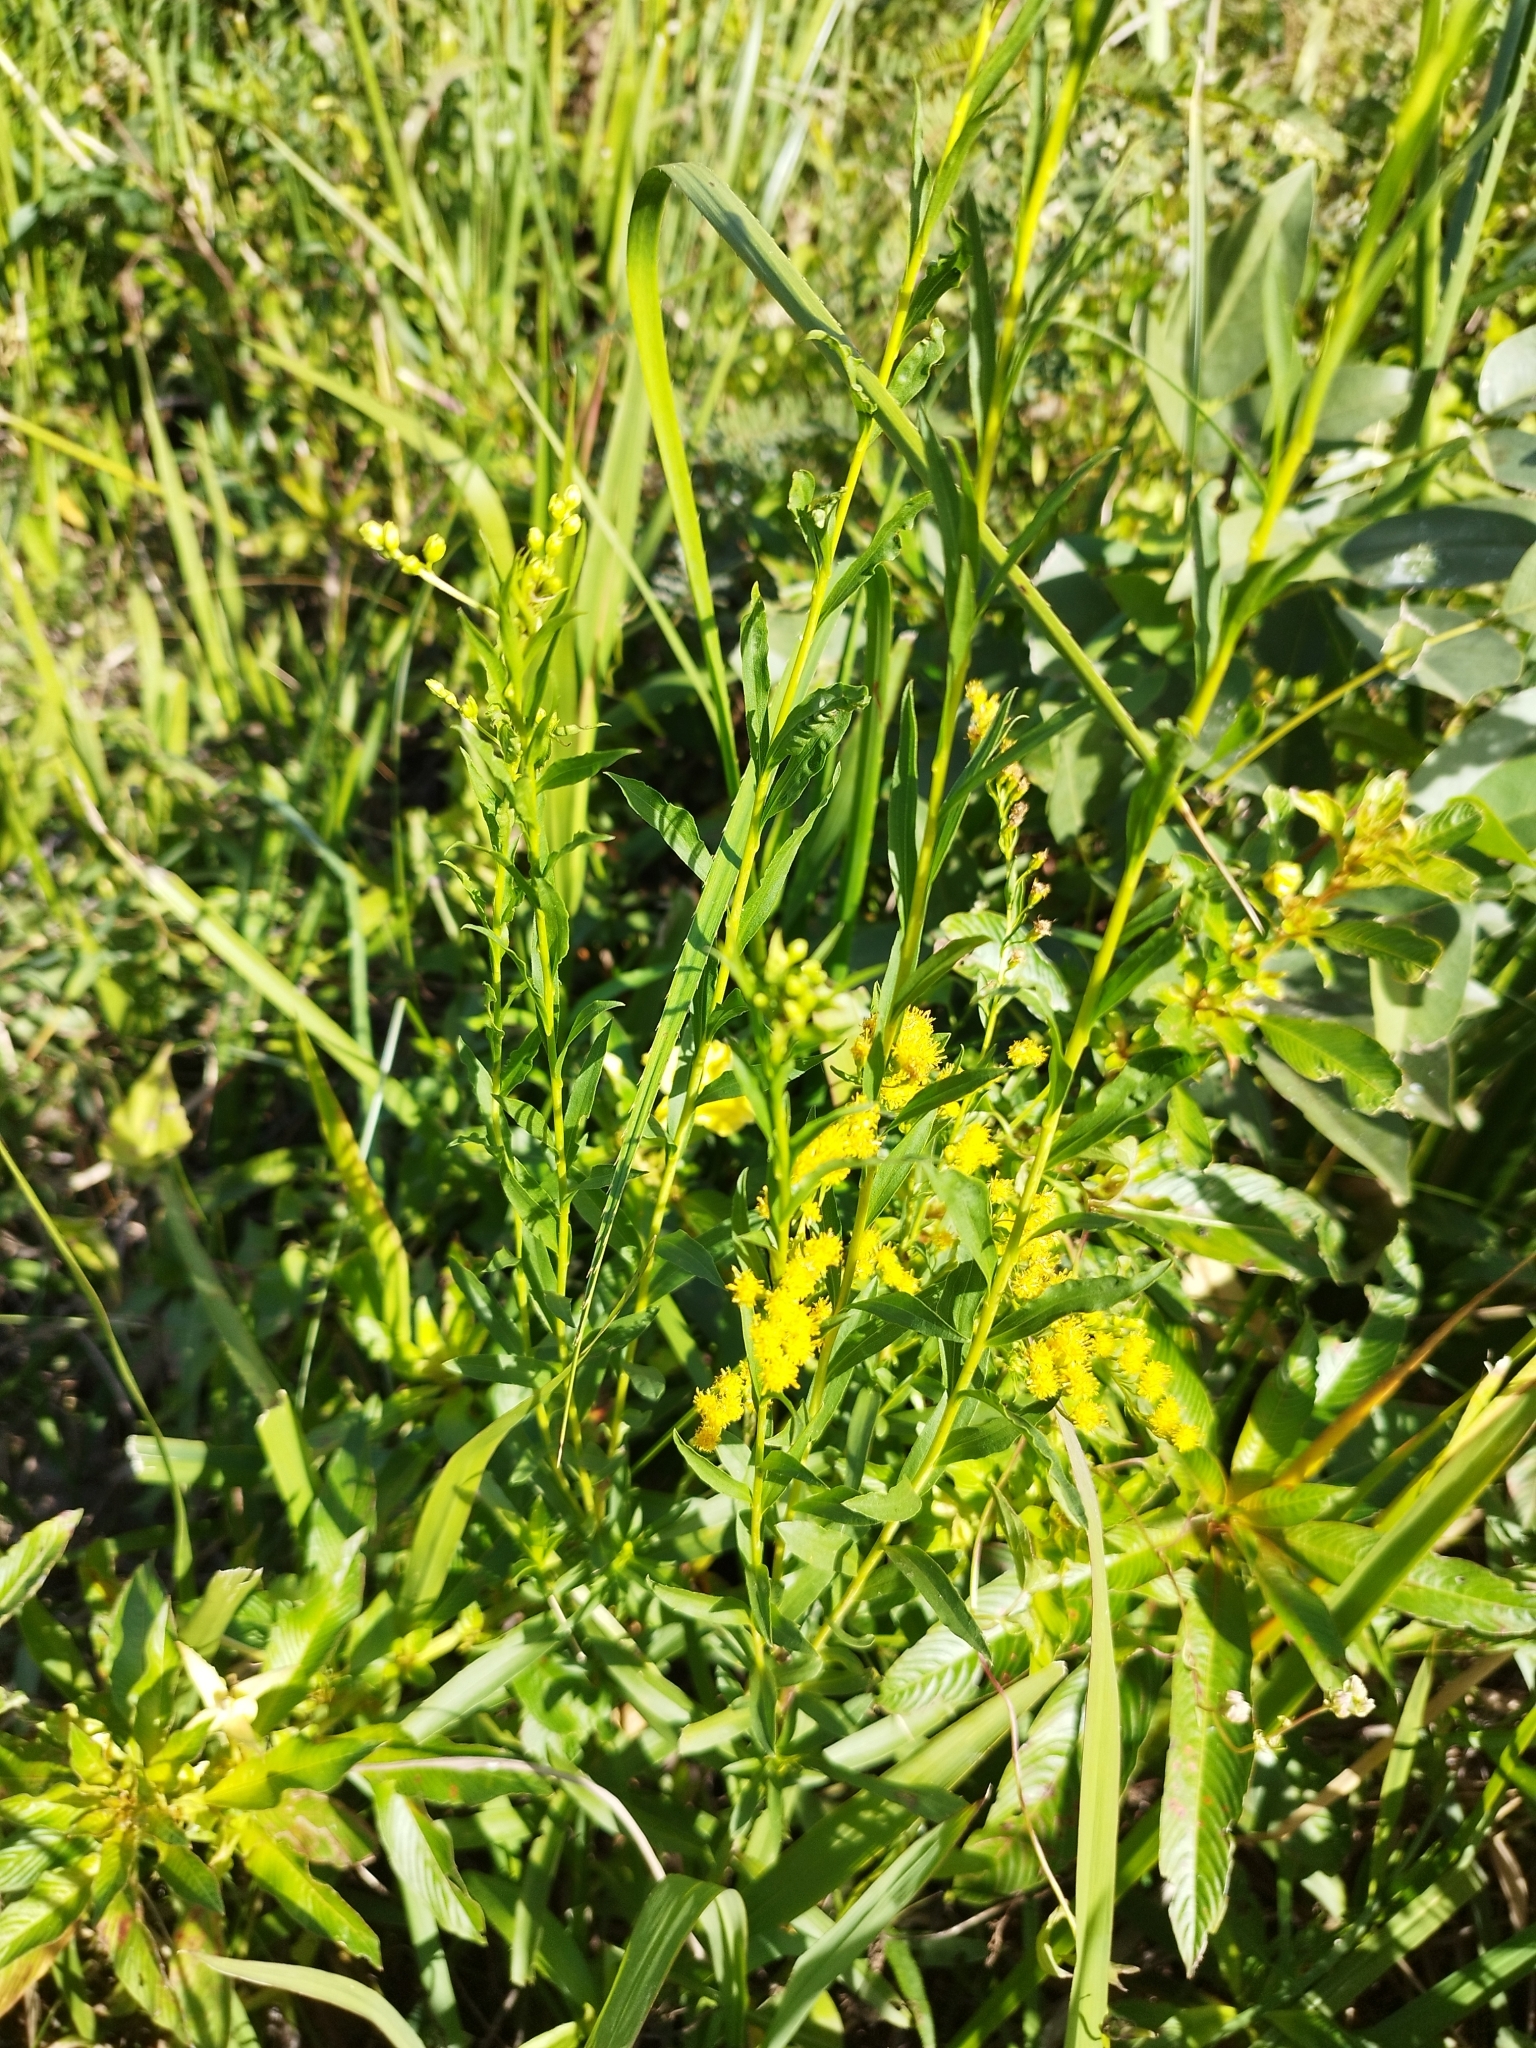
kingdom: Plantae
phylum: Tracheophyta
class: Magnoliopsida
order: Asterales
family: Asteraceae
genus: Solidago
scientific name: Solidago chilensis
